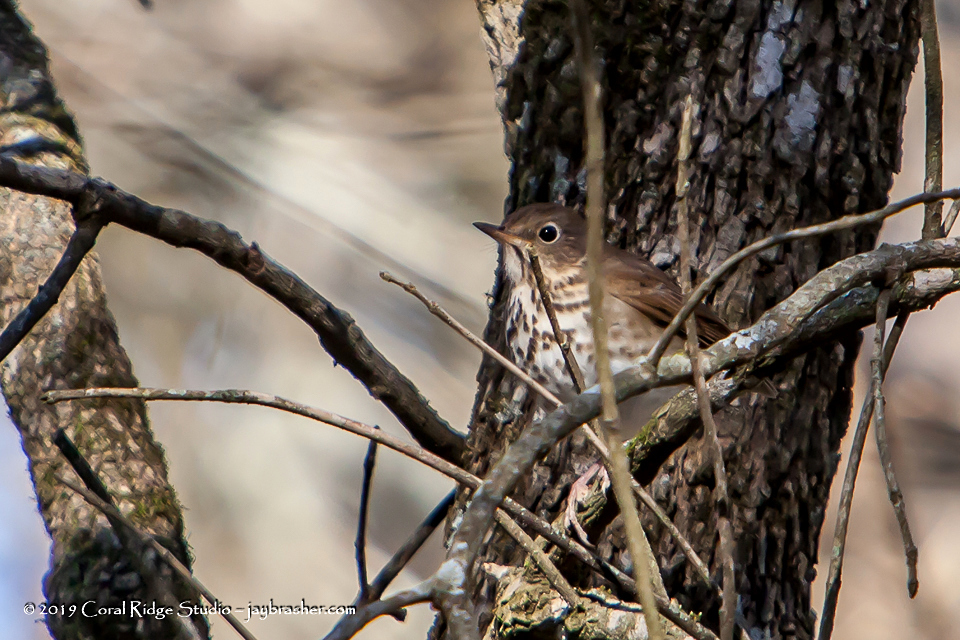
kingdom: Animalia
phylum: Chordata
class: Aves
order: Passeriformes
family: Turdidae
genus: Catharus
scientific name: Catharus guttatus
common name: Hermit thrush
